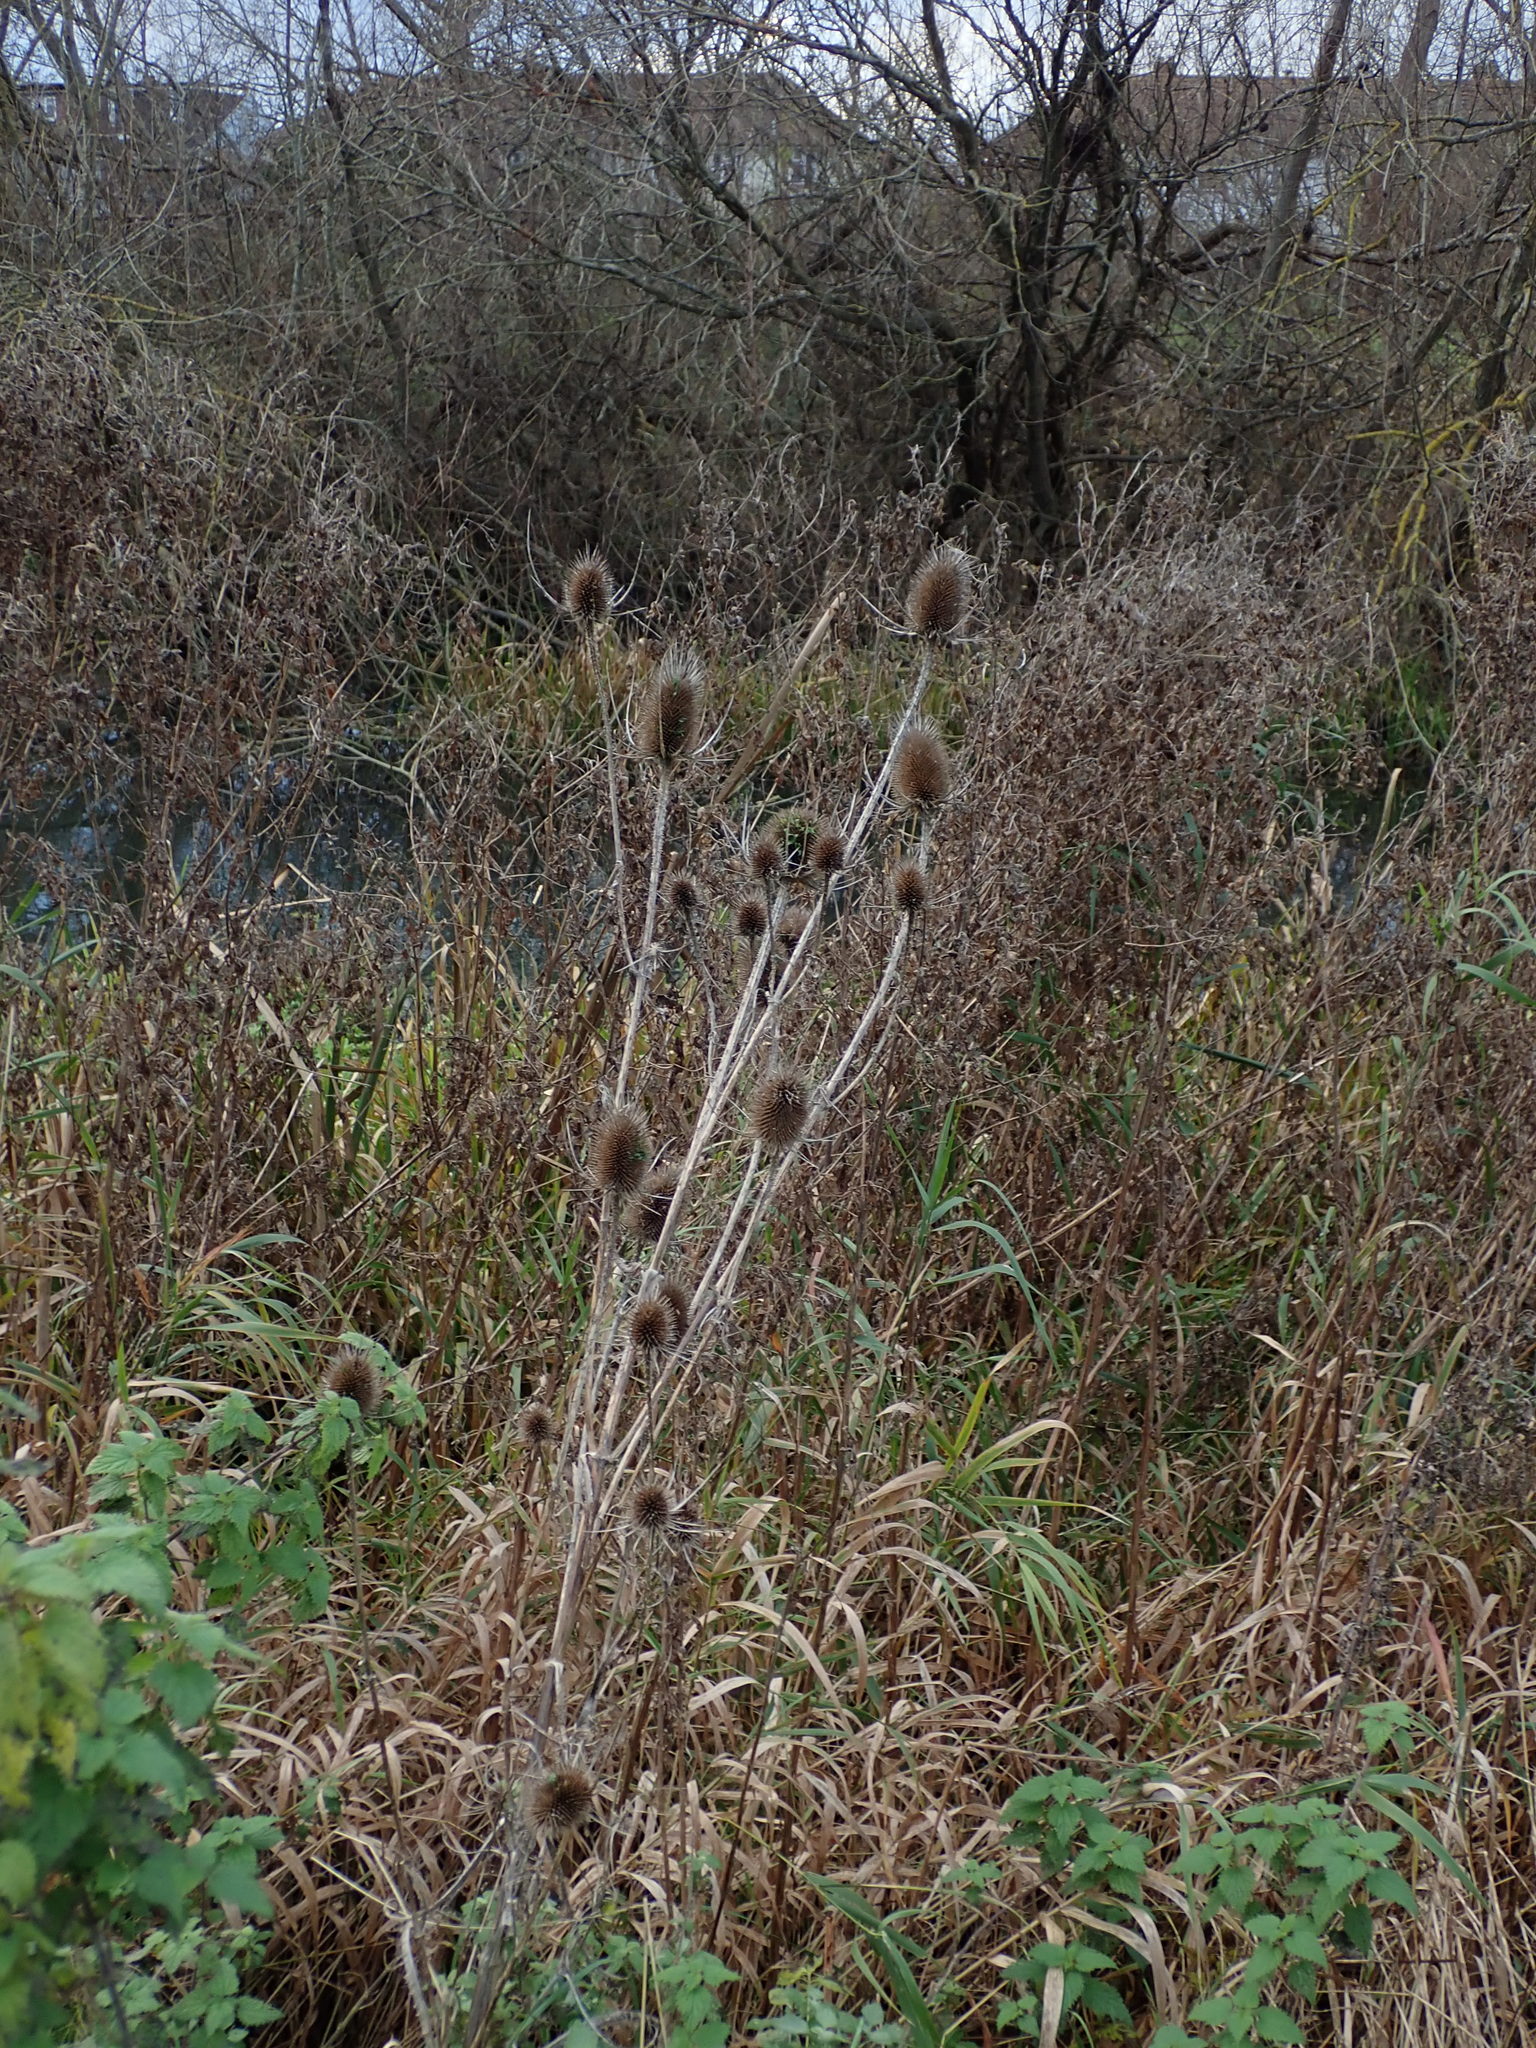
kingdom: Plantae
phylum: Tracheophyta
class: Magnoliopsida
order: Dipsacales
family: Caprifoliaceae
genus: Dipsacus
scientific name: Dipsacus fullonum
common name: Teasel
